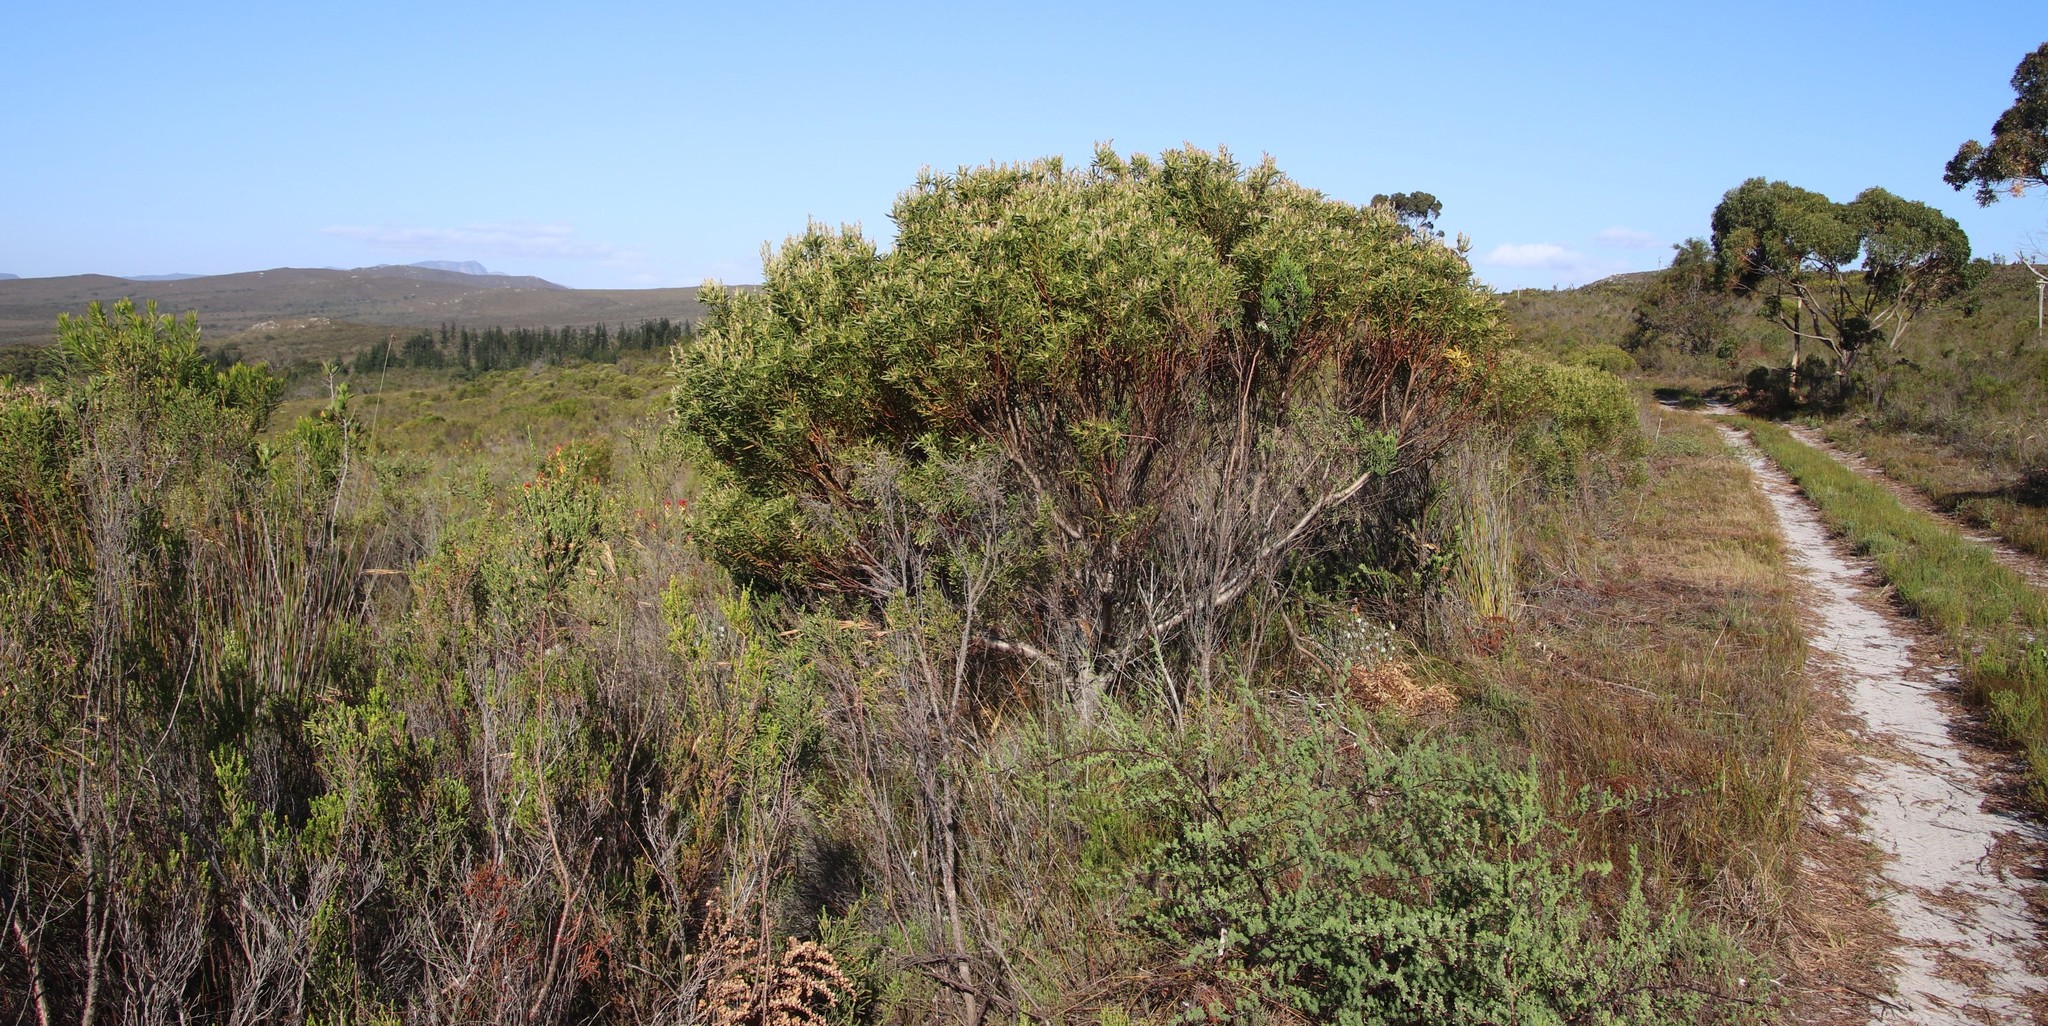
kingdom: Plantae
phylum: Tracheophyta
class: Magnoliopsida
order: Proteales
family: Proteaceae
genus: Leucadendron
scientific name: Leucadendron coniferum
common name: Dune conebush
